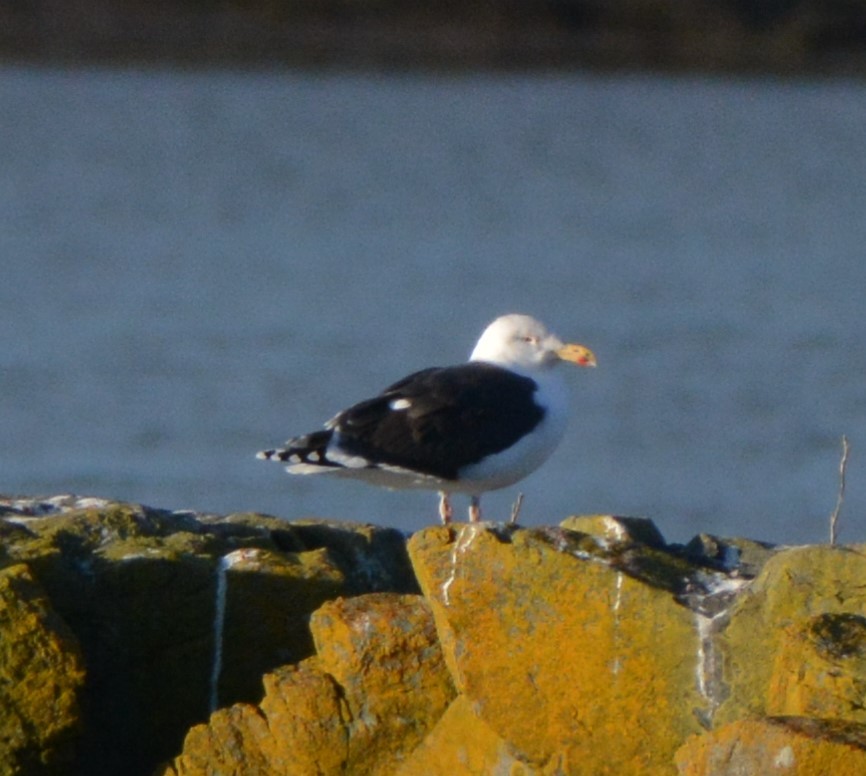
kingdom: Animalia
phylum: Chordata
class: Aves
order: Charadriiformes
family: Laridae
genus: Larus
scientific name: Larus marinus
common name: Great black-backed gull
